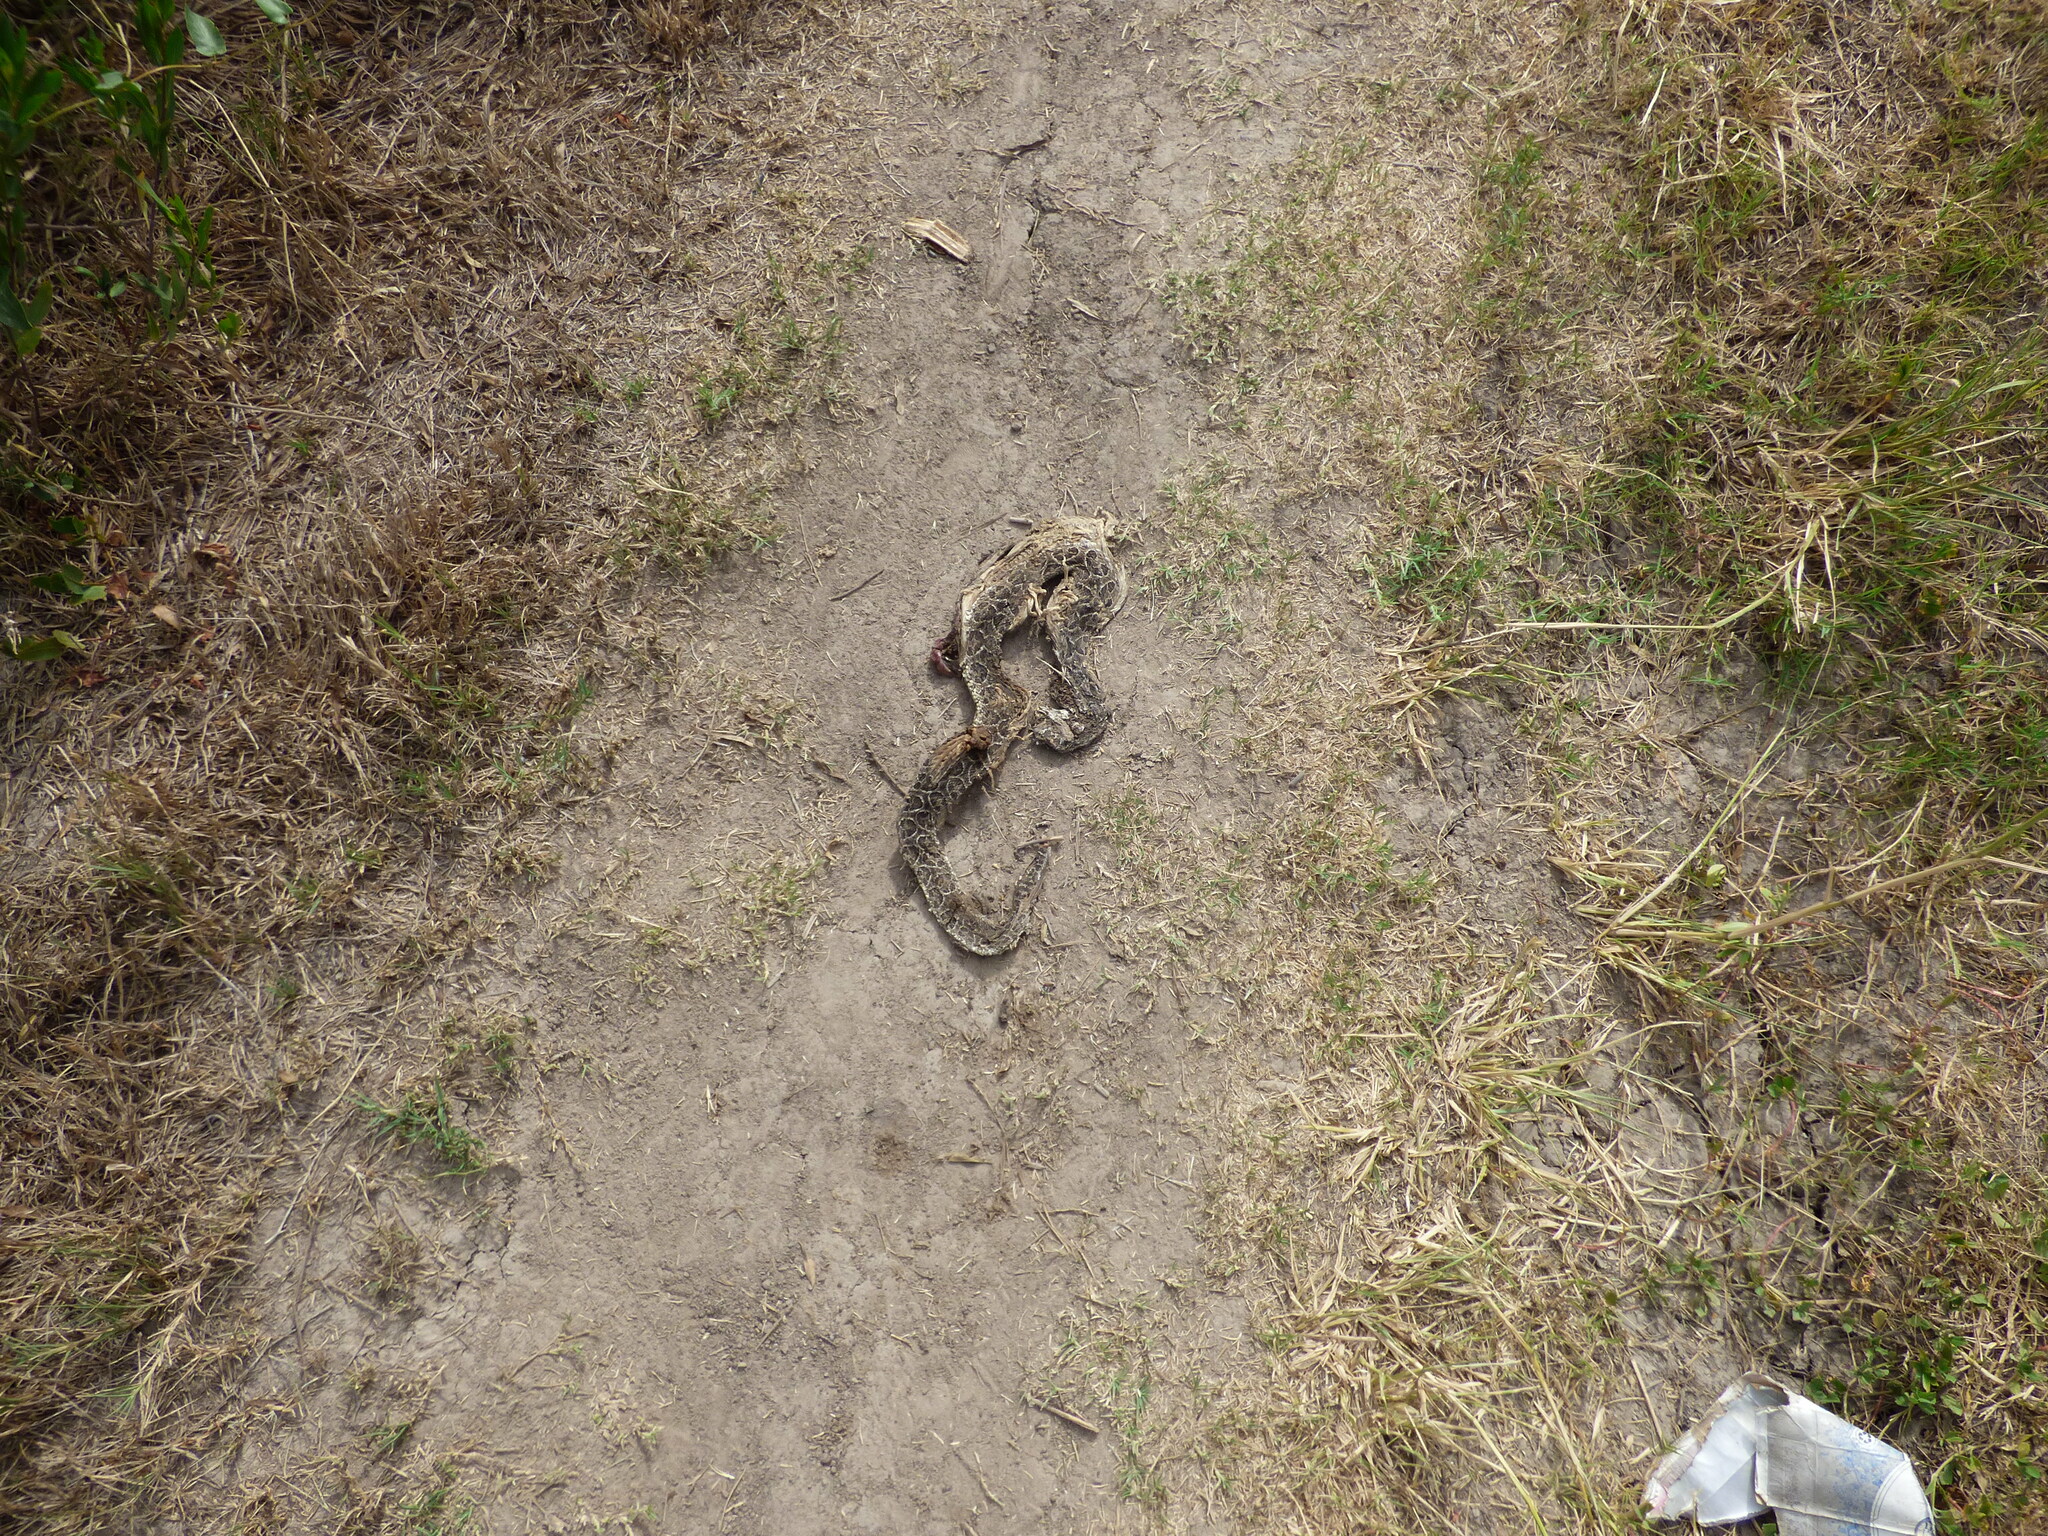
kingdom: Animalia
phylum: Chordata
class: Squamata
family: Viperidae
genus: Bothrops
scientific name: Bothrops alternatus
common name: Urutu
